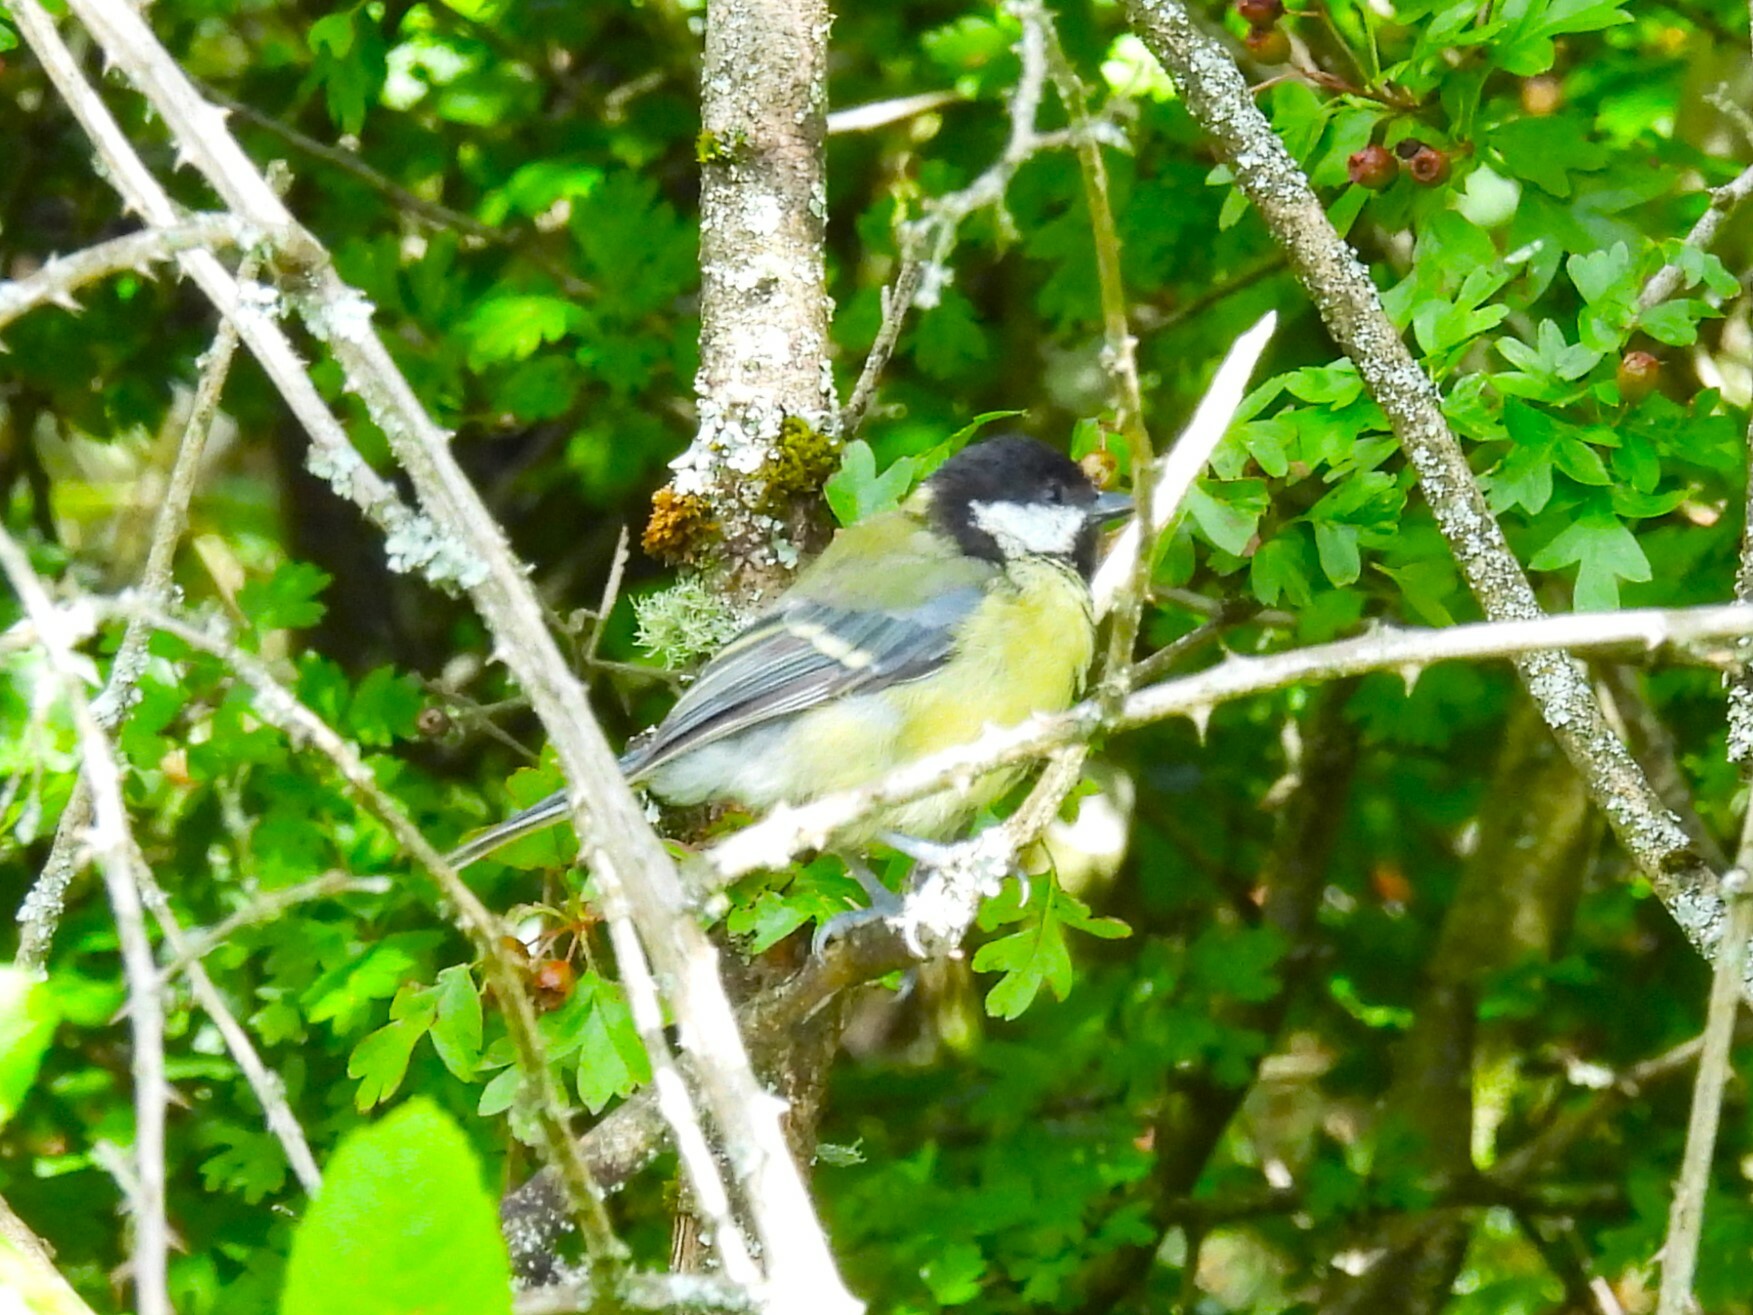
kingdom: Animalia
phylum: Chordata
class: Aves
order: Passeriformes
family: Paridae
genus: Parus
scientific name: Parus major
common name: Great tit
